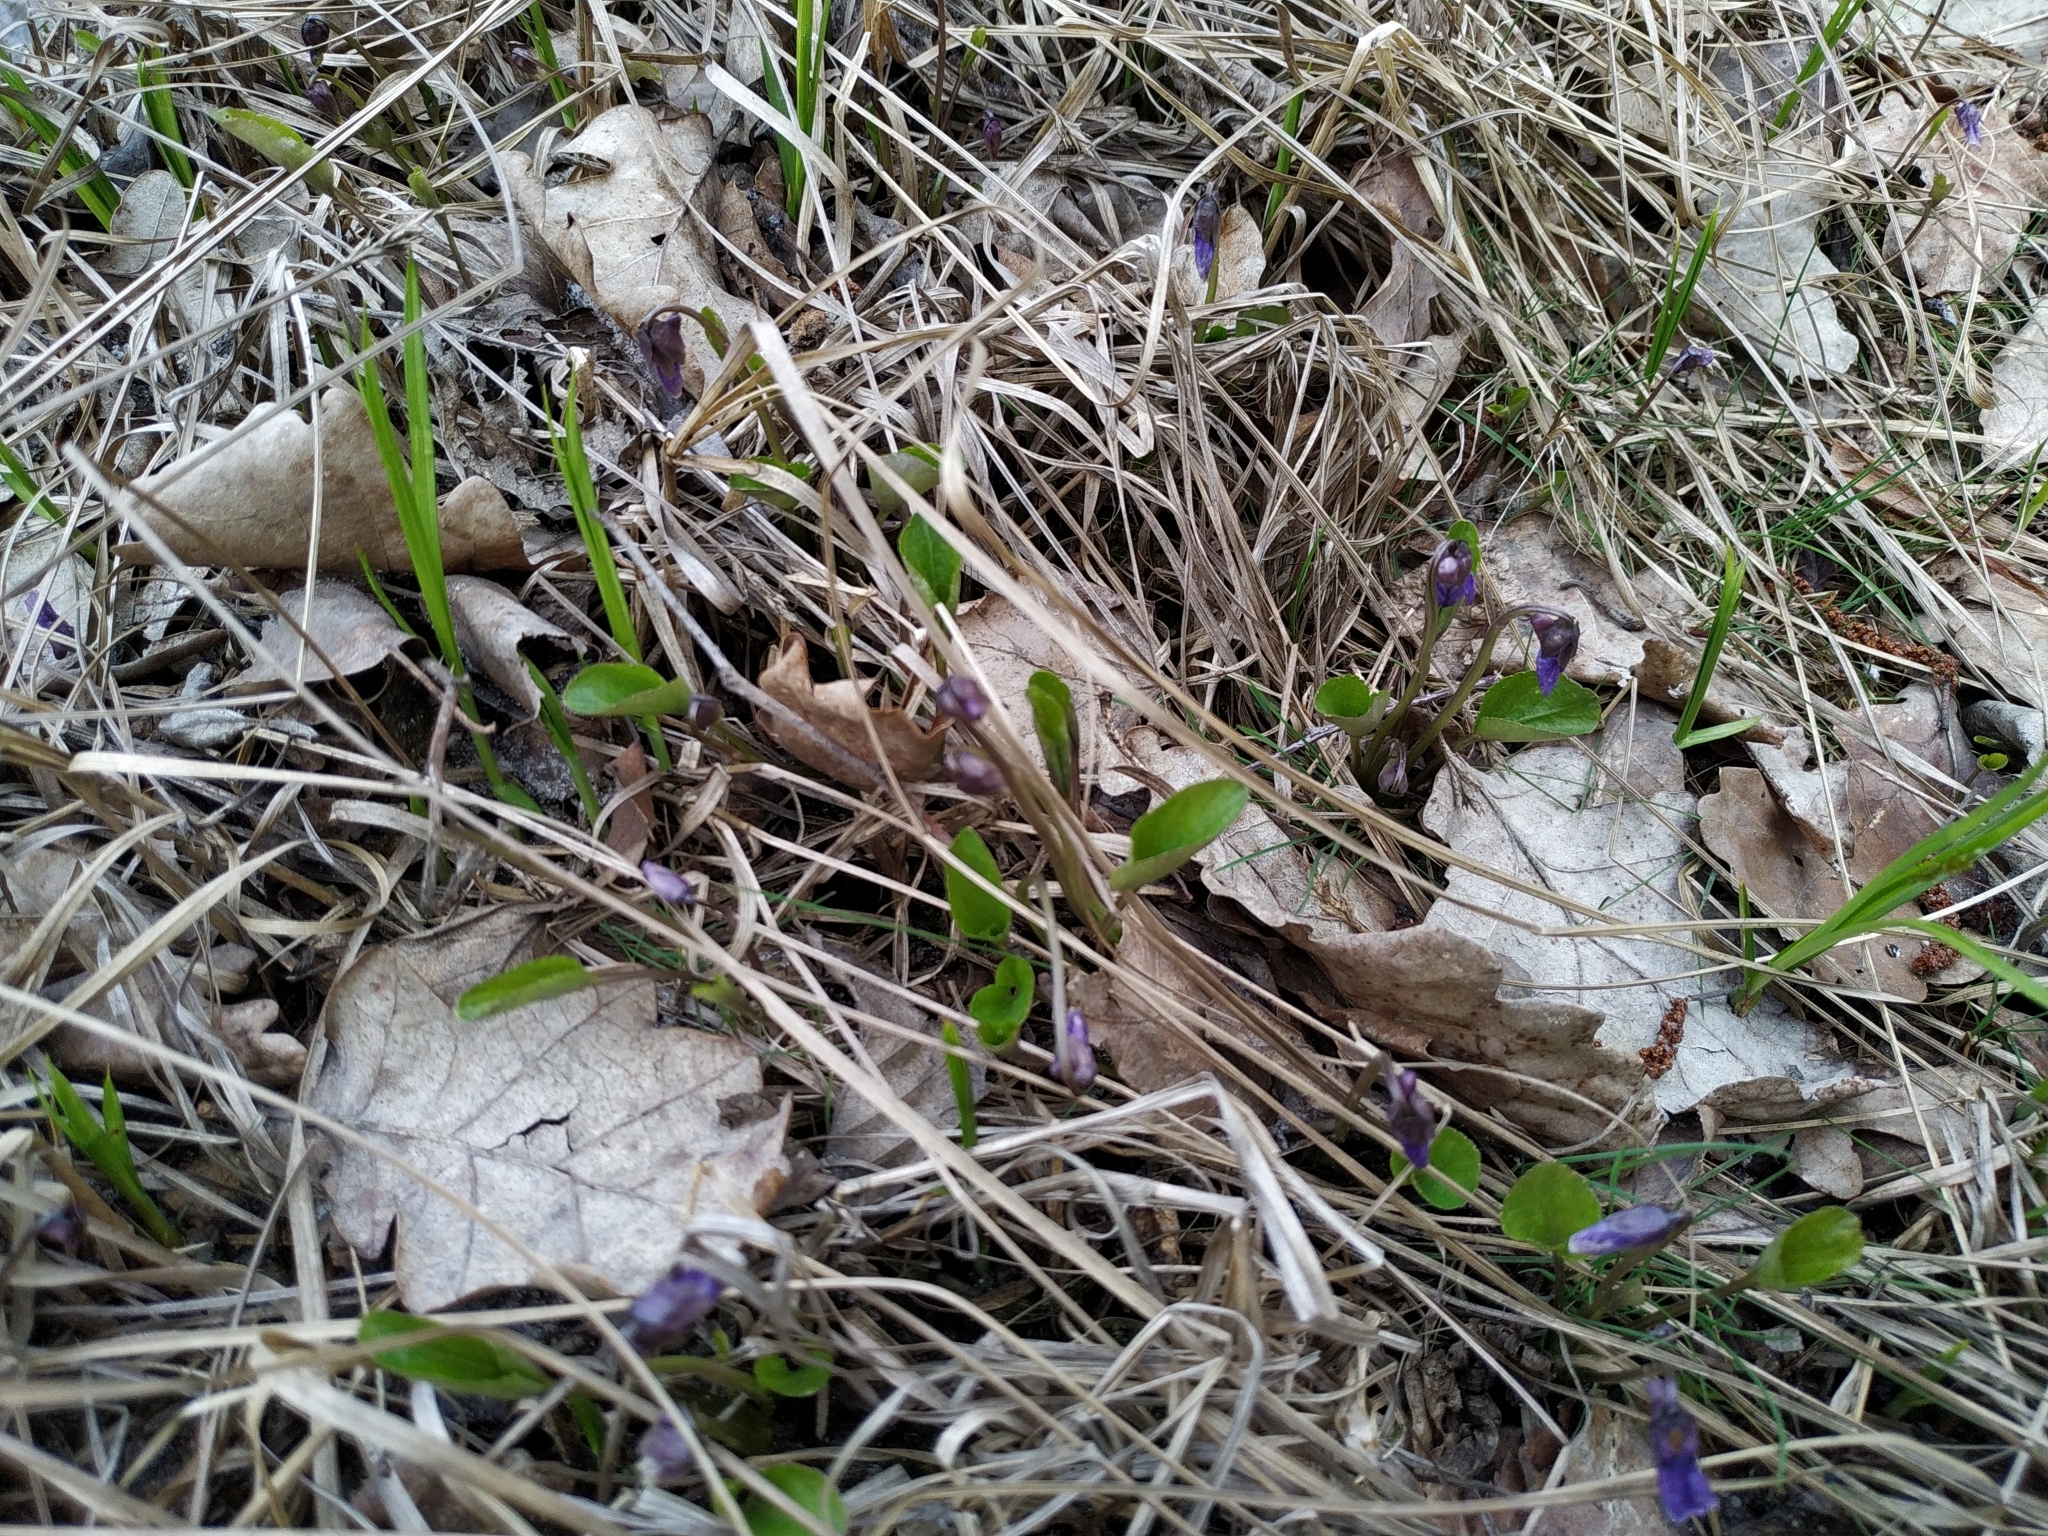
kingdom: Plantae
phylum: Tracheophyta
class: Magnoliopsida
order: Malpighiales
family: Violaceae
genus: Viola
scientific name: Viola uliginosa
